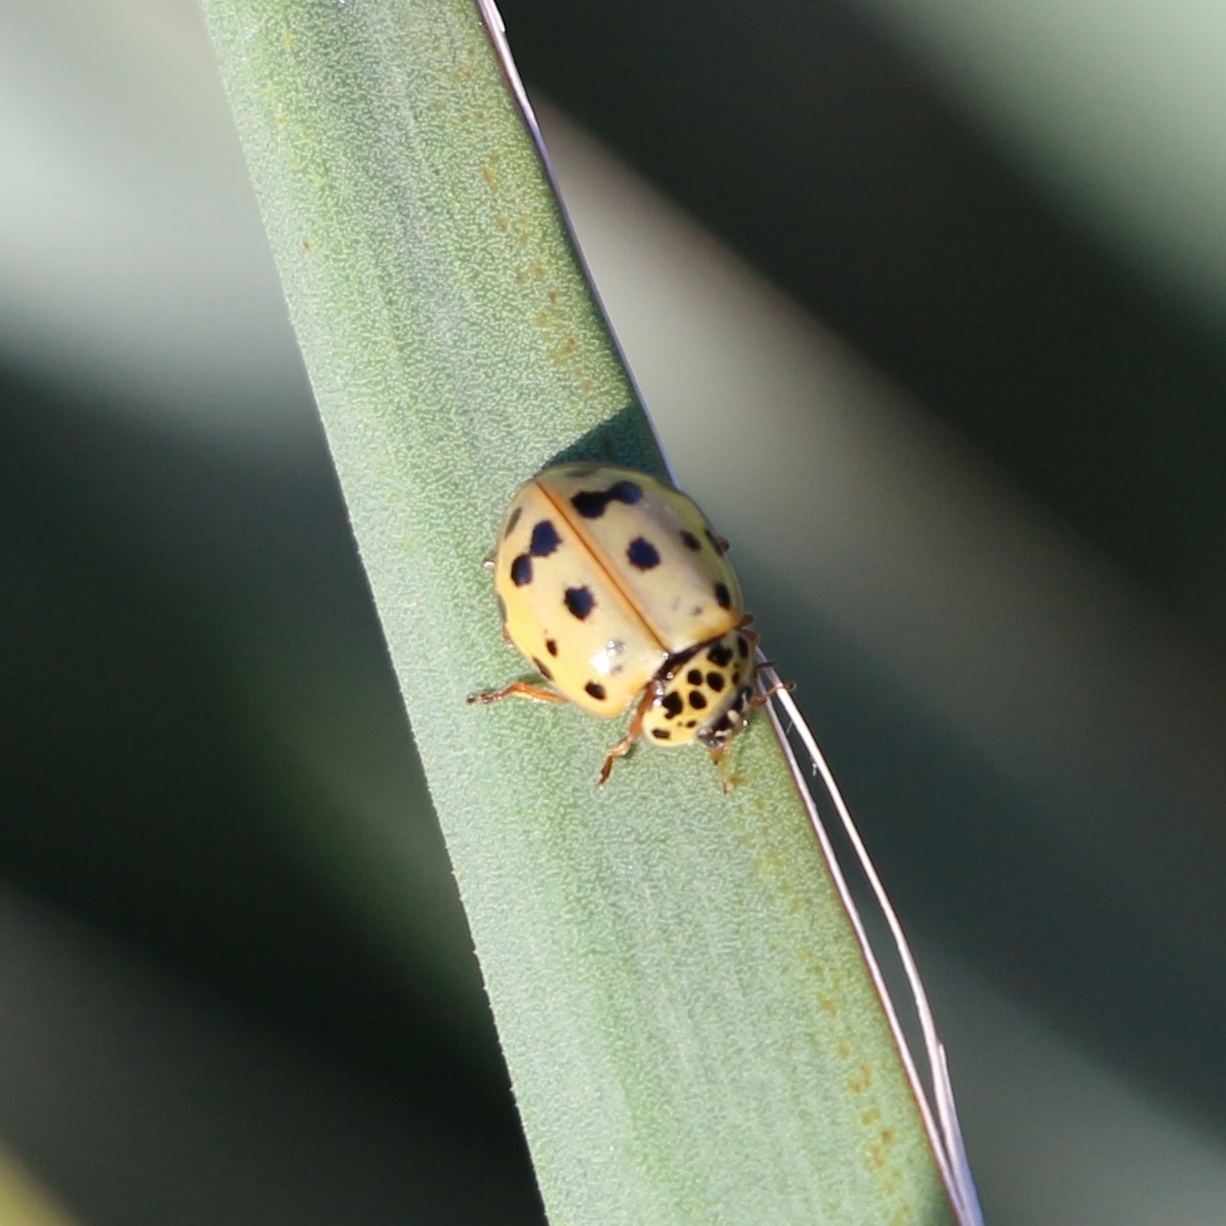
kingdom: Animalia
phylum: Arthropoda
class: Insecta
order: Coleoptera
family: Coccinellidae
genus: Harmonia
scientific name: Harmonia quadripunctata
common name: Cream-streaked ladybird
